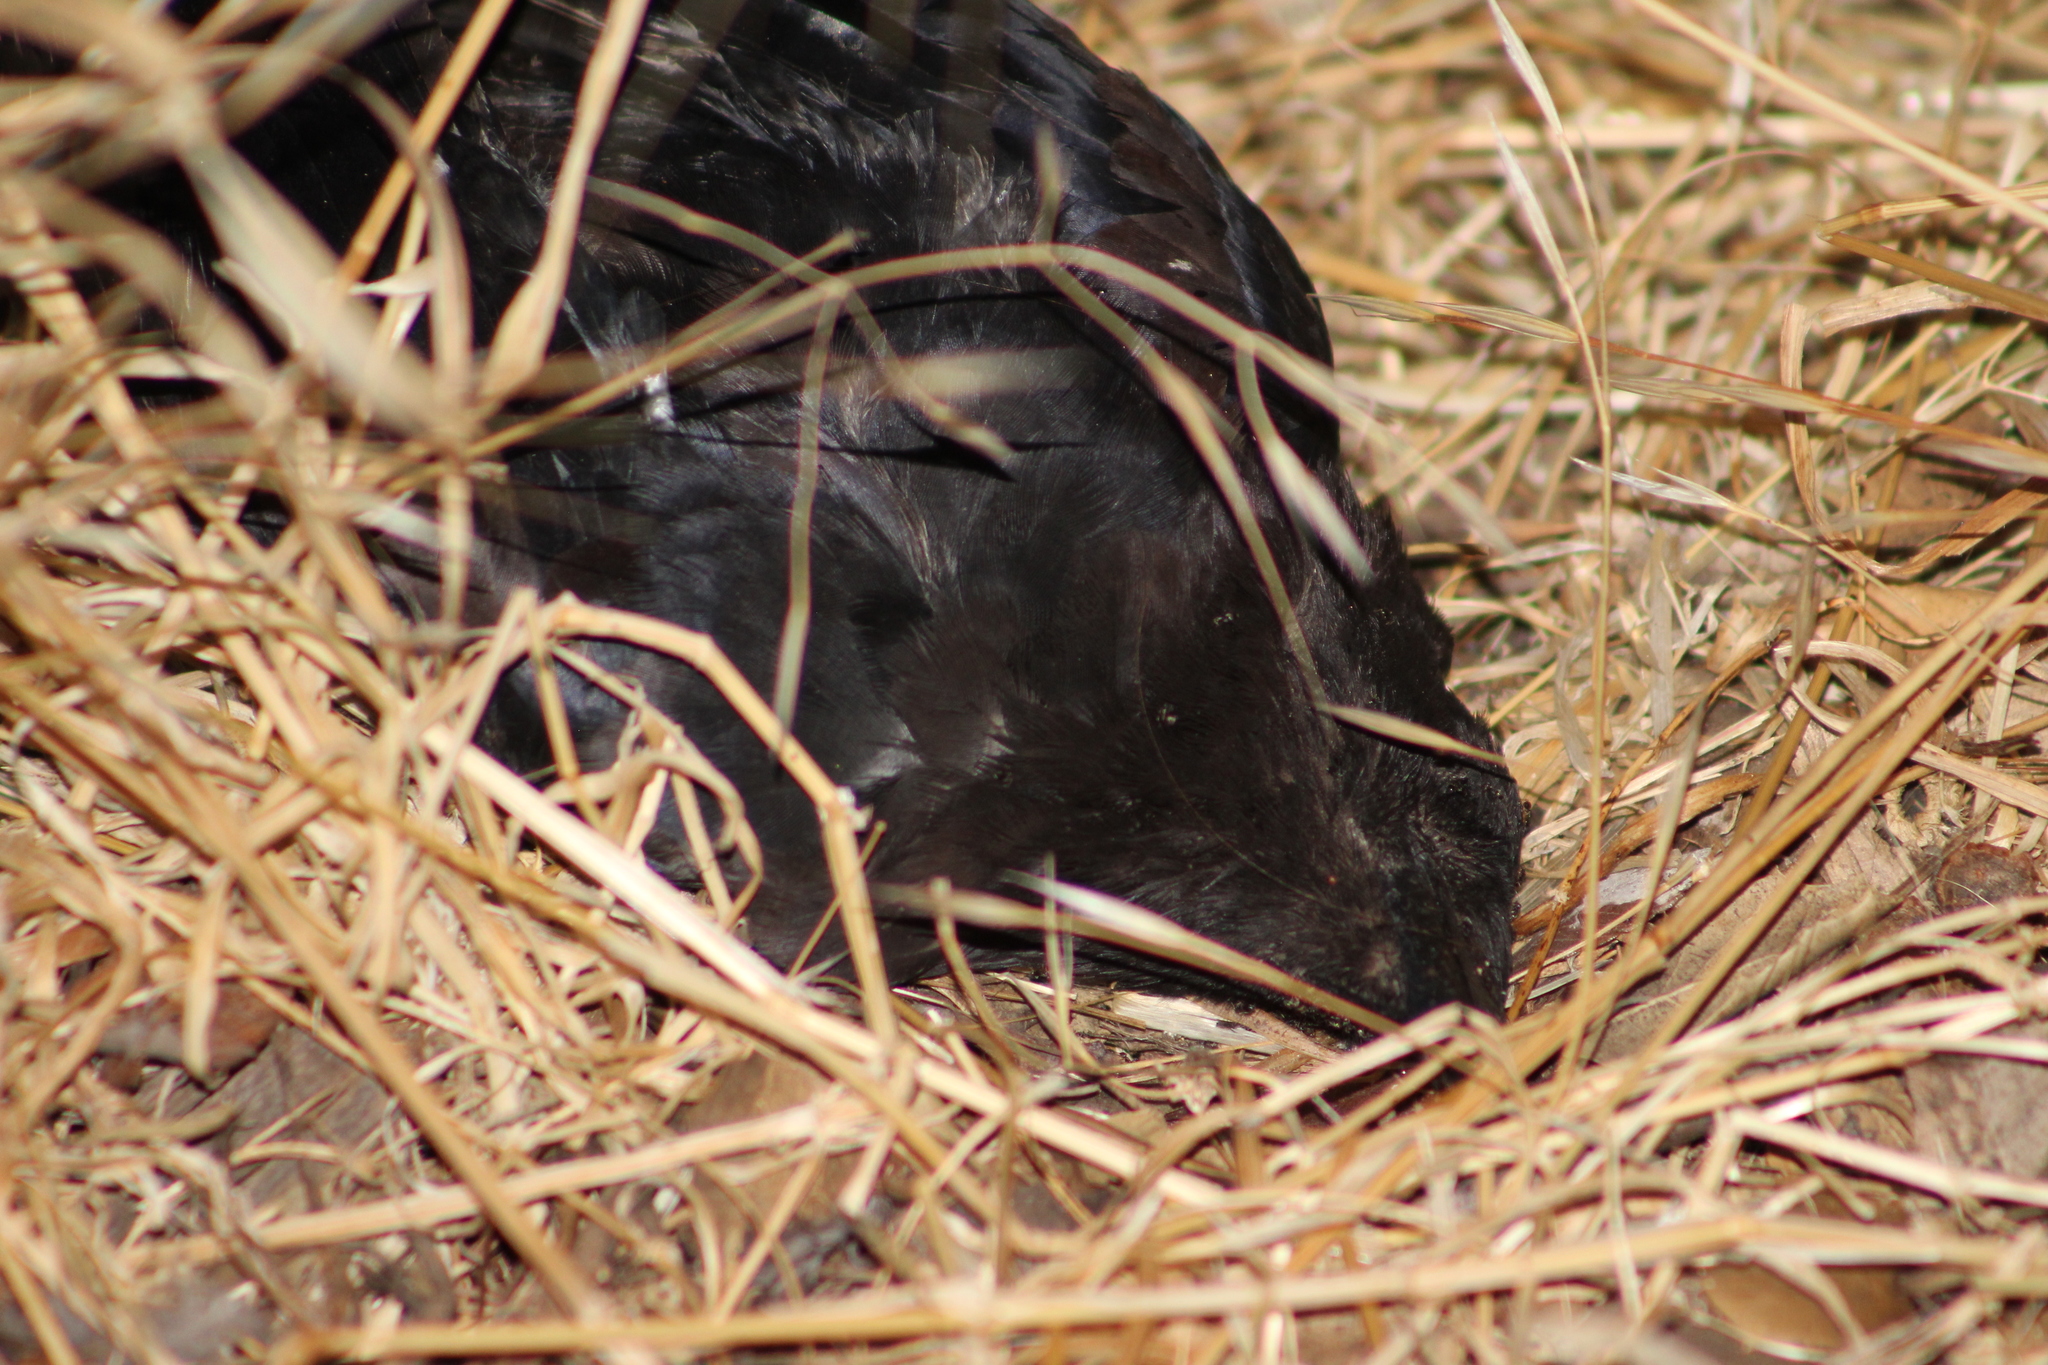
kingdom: Animalia
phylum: Chordata
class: Aves
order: Passeriformes
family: Corvidae
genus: Corvus
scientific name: Corvus brachyrhynchos
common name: American crow
